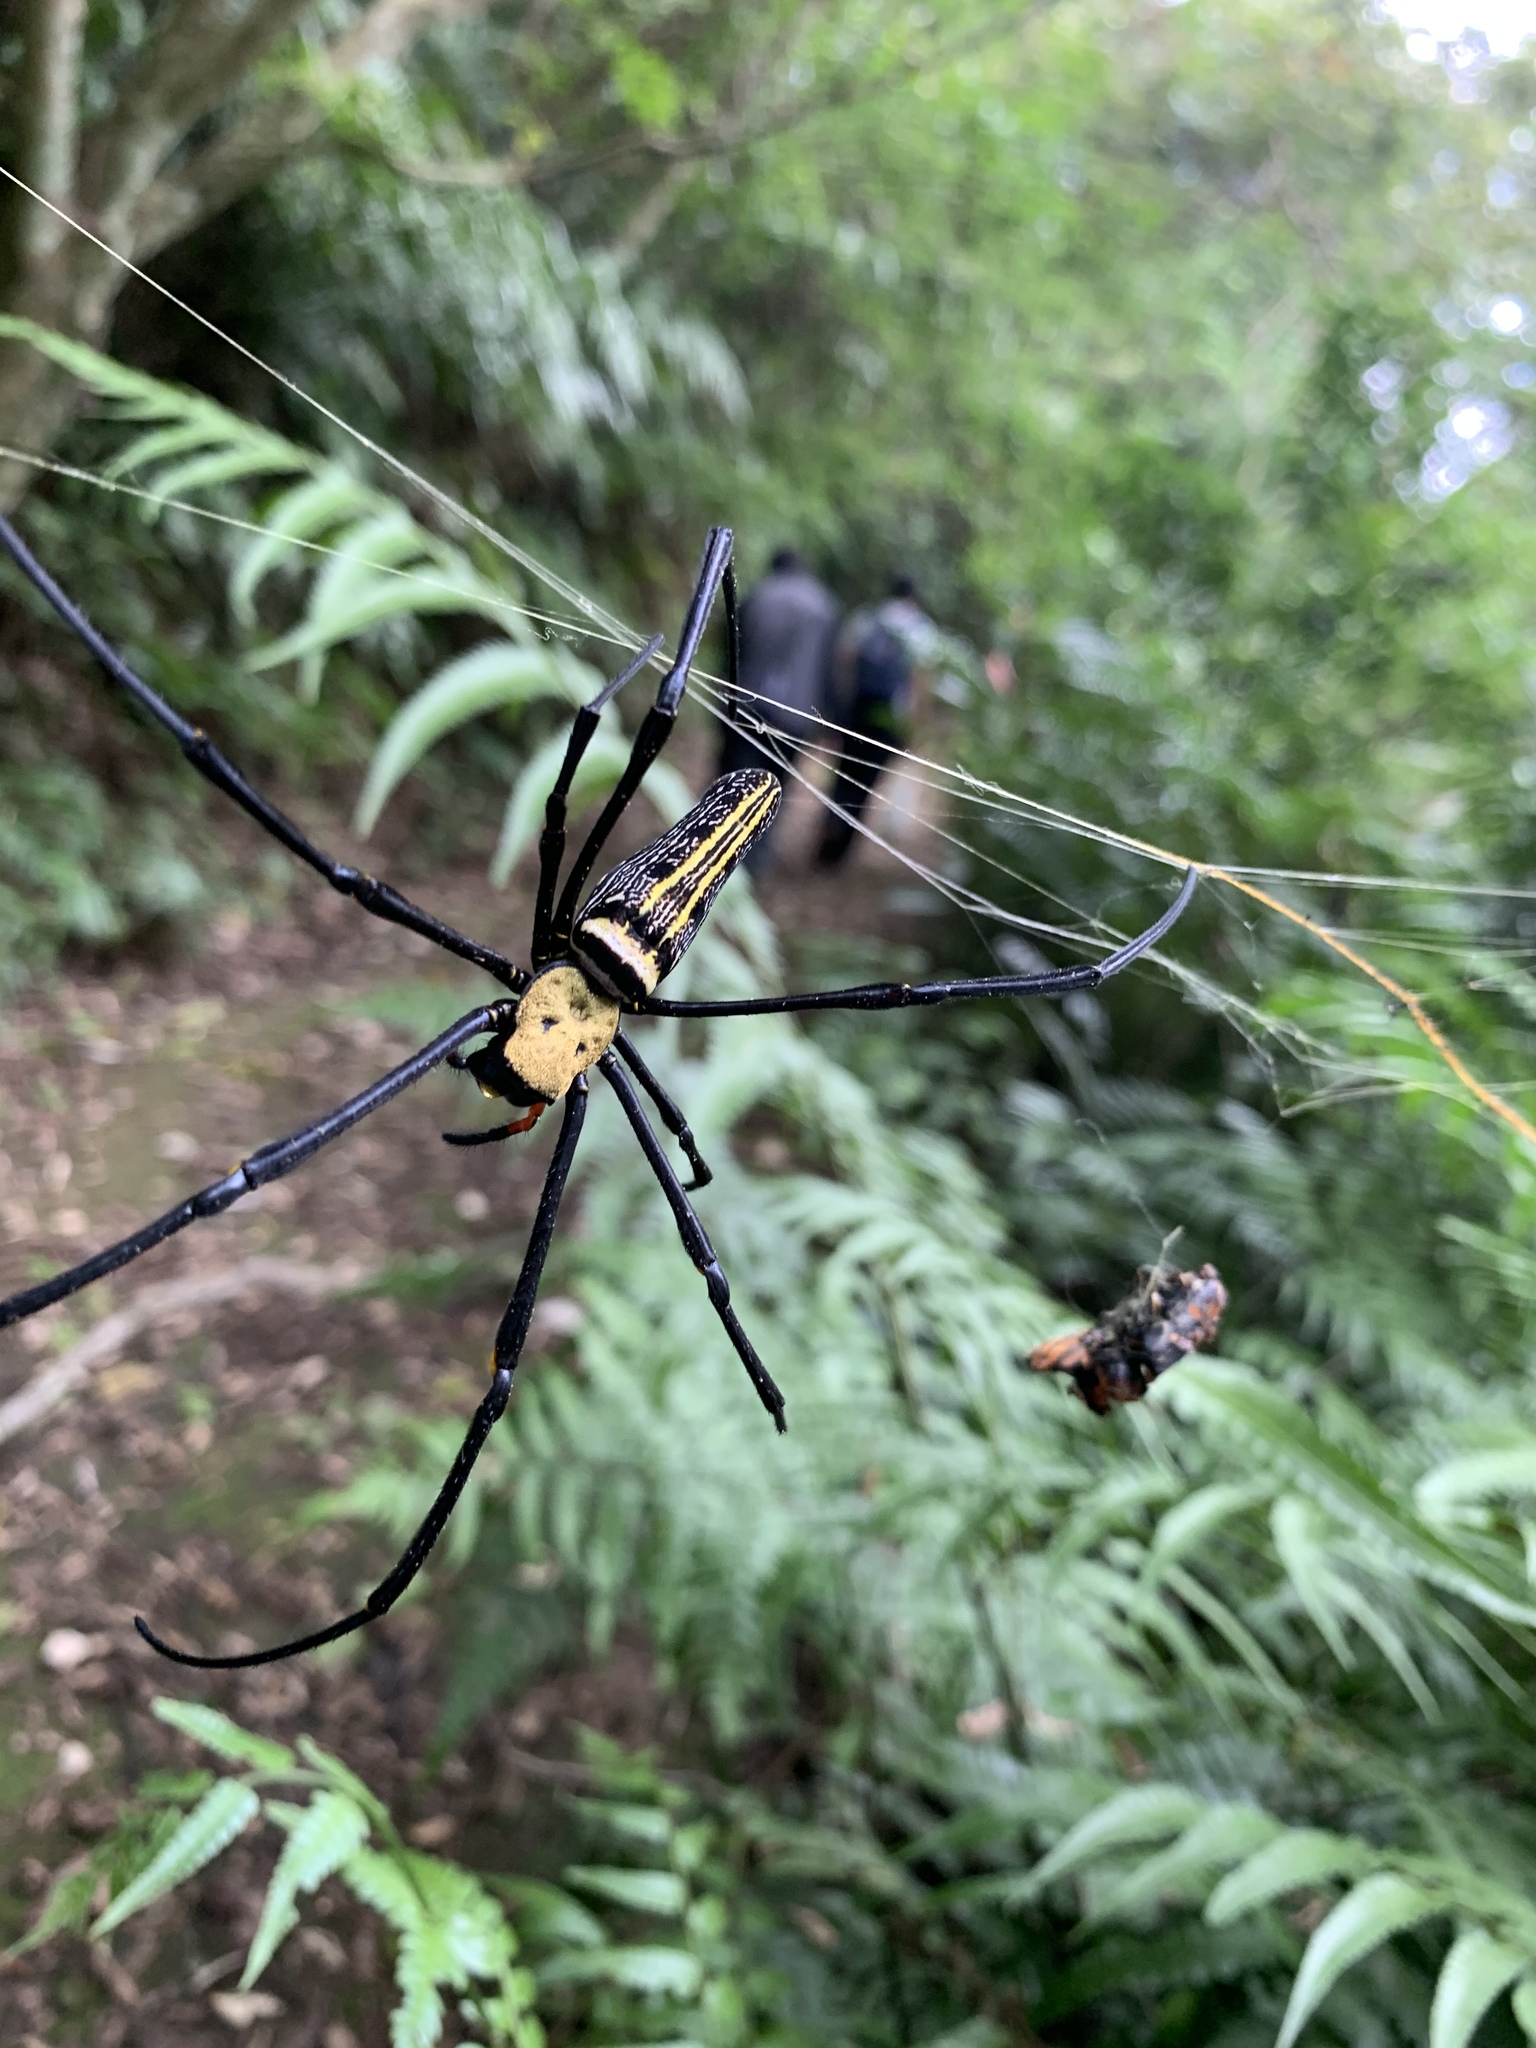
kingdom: Animalia
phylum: Arthropoda
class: Arachnida
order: Araneae
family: Araneidae
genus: Nephila
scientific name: Nephila pilipes
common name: Giant golden orb weaver
